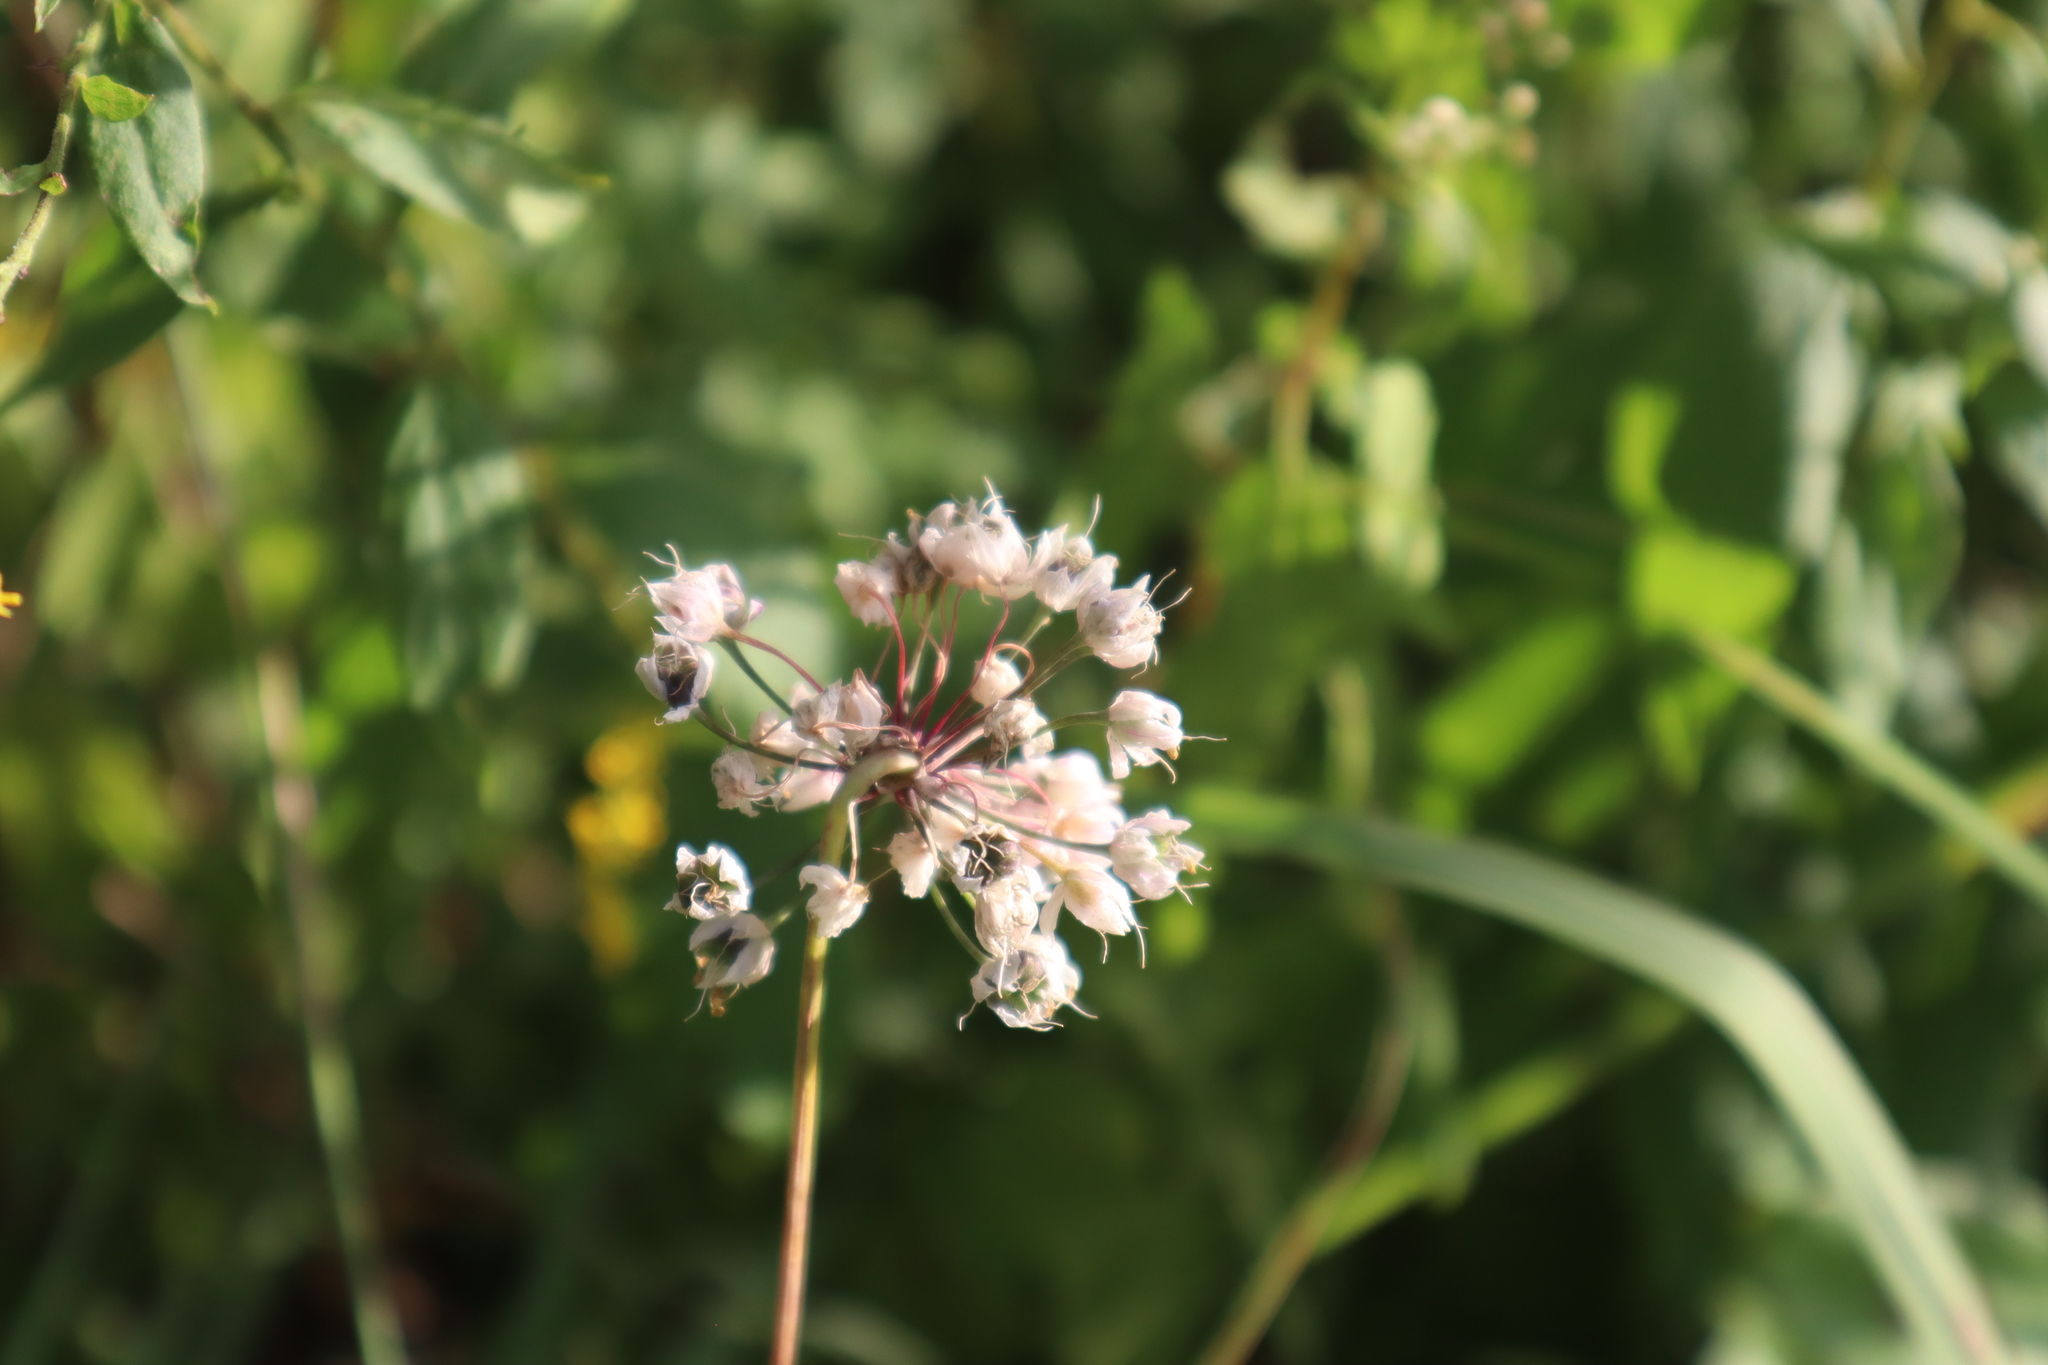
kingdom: Plantae
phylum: Tracheophyta
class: Liliopsida
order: Asparagales
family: Amaryllidaceae
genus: Allium
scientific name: Allium cernuum
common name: Nodding onion
